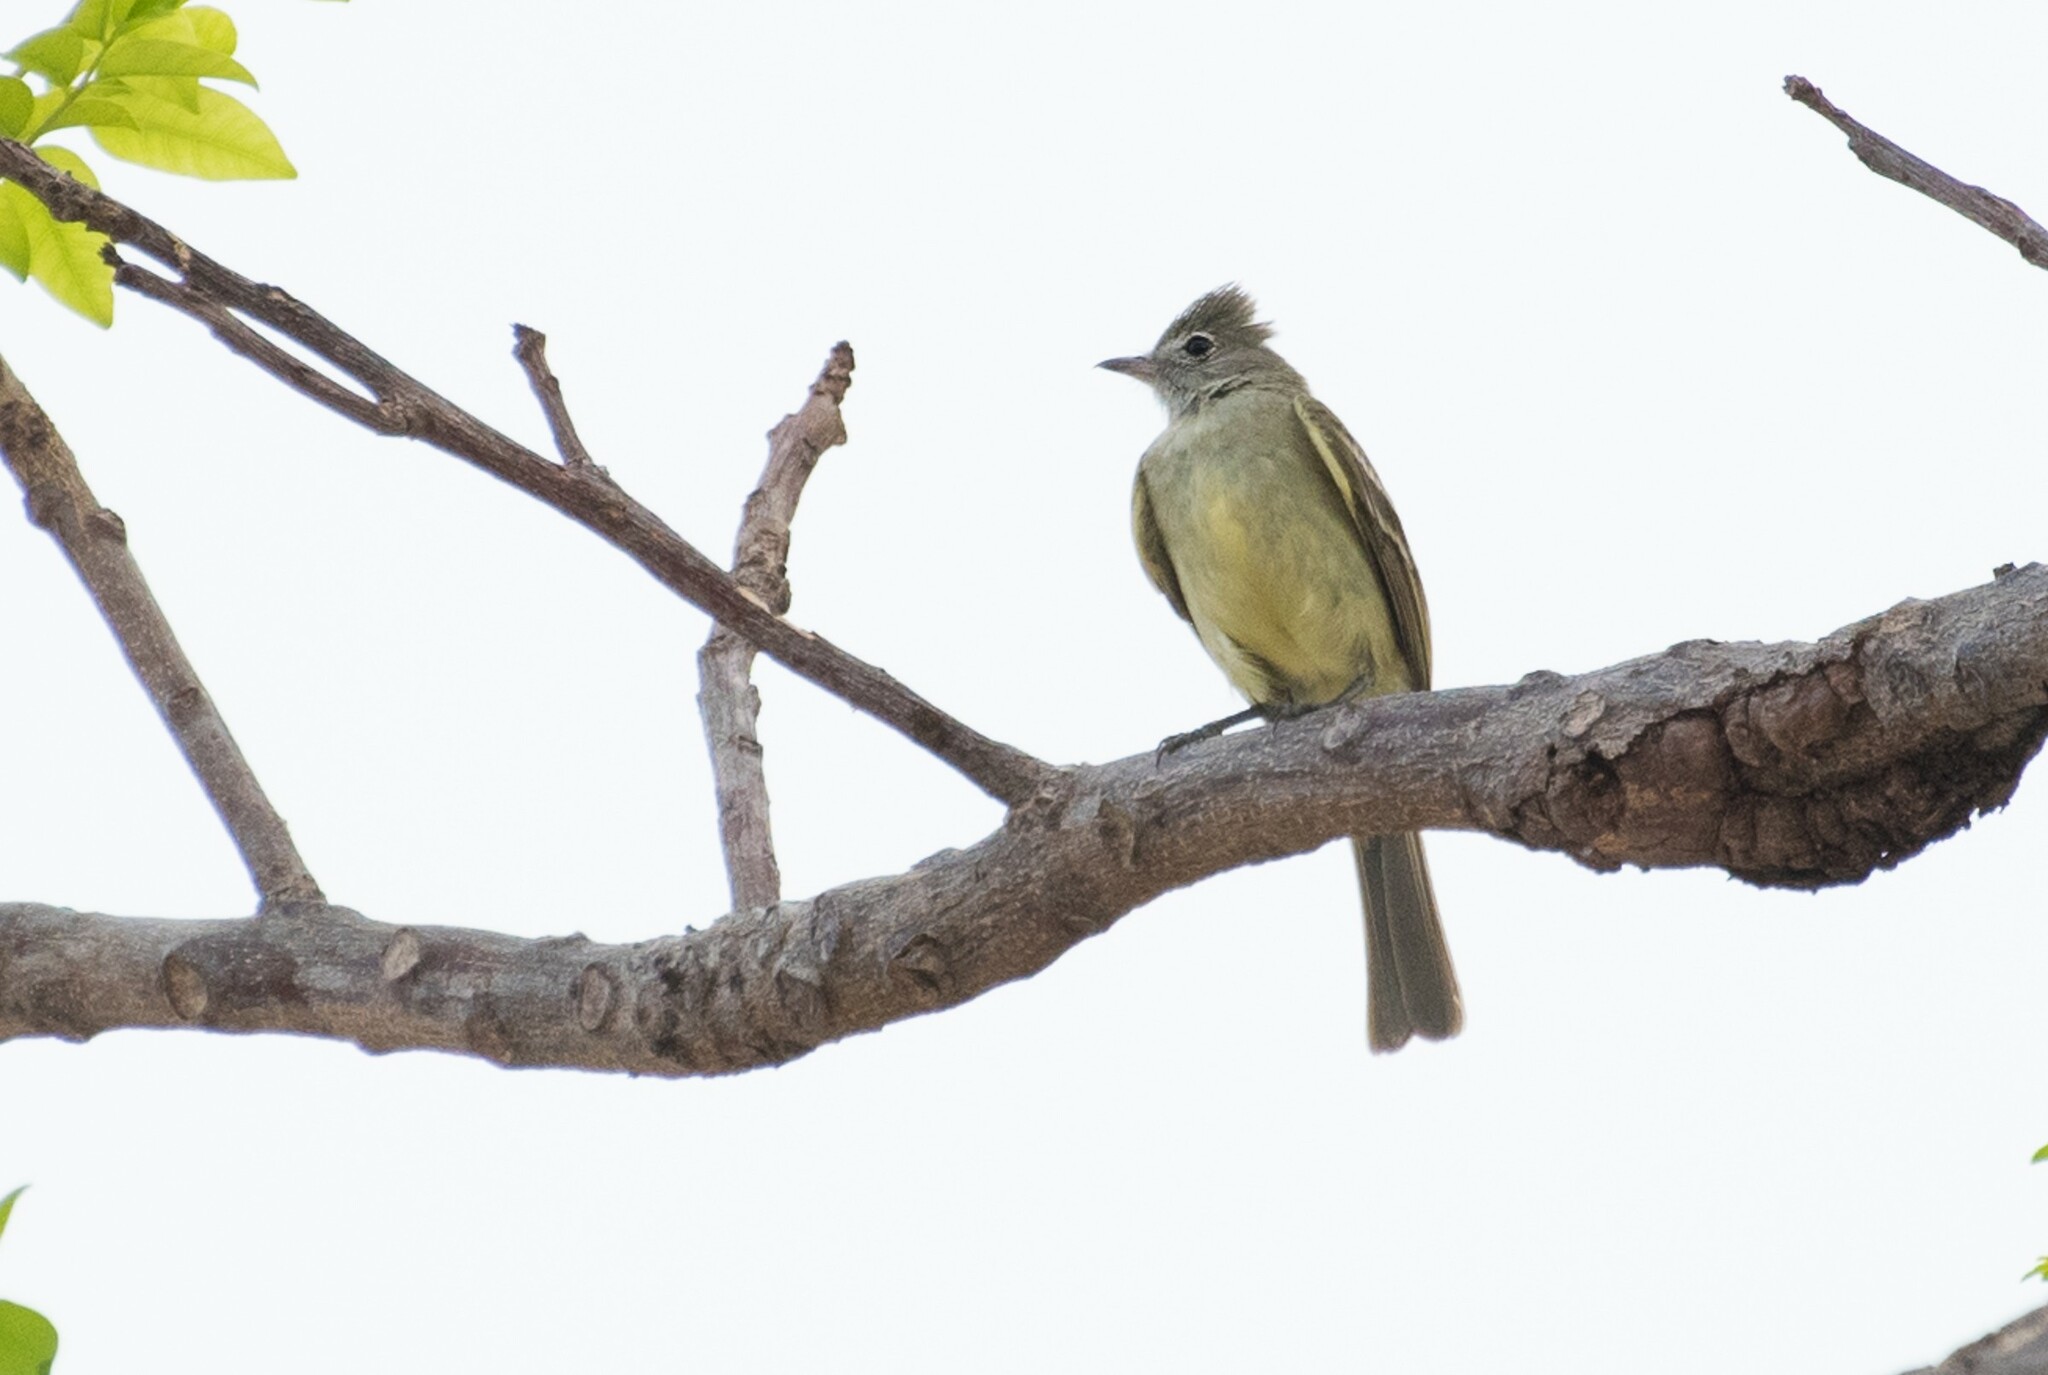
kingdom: Animalia
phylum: Chordata
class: Aves
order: Passeriformes
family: Tyrannidae
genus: Elaenia
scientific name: Elaenia flavogaster
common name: Yellow-bellied elaenia
